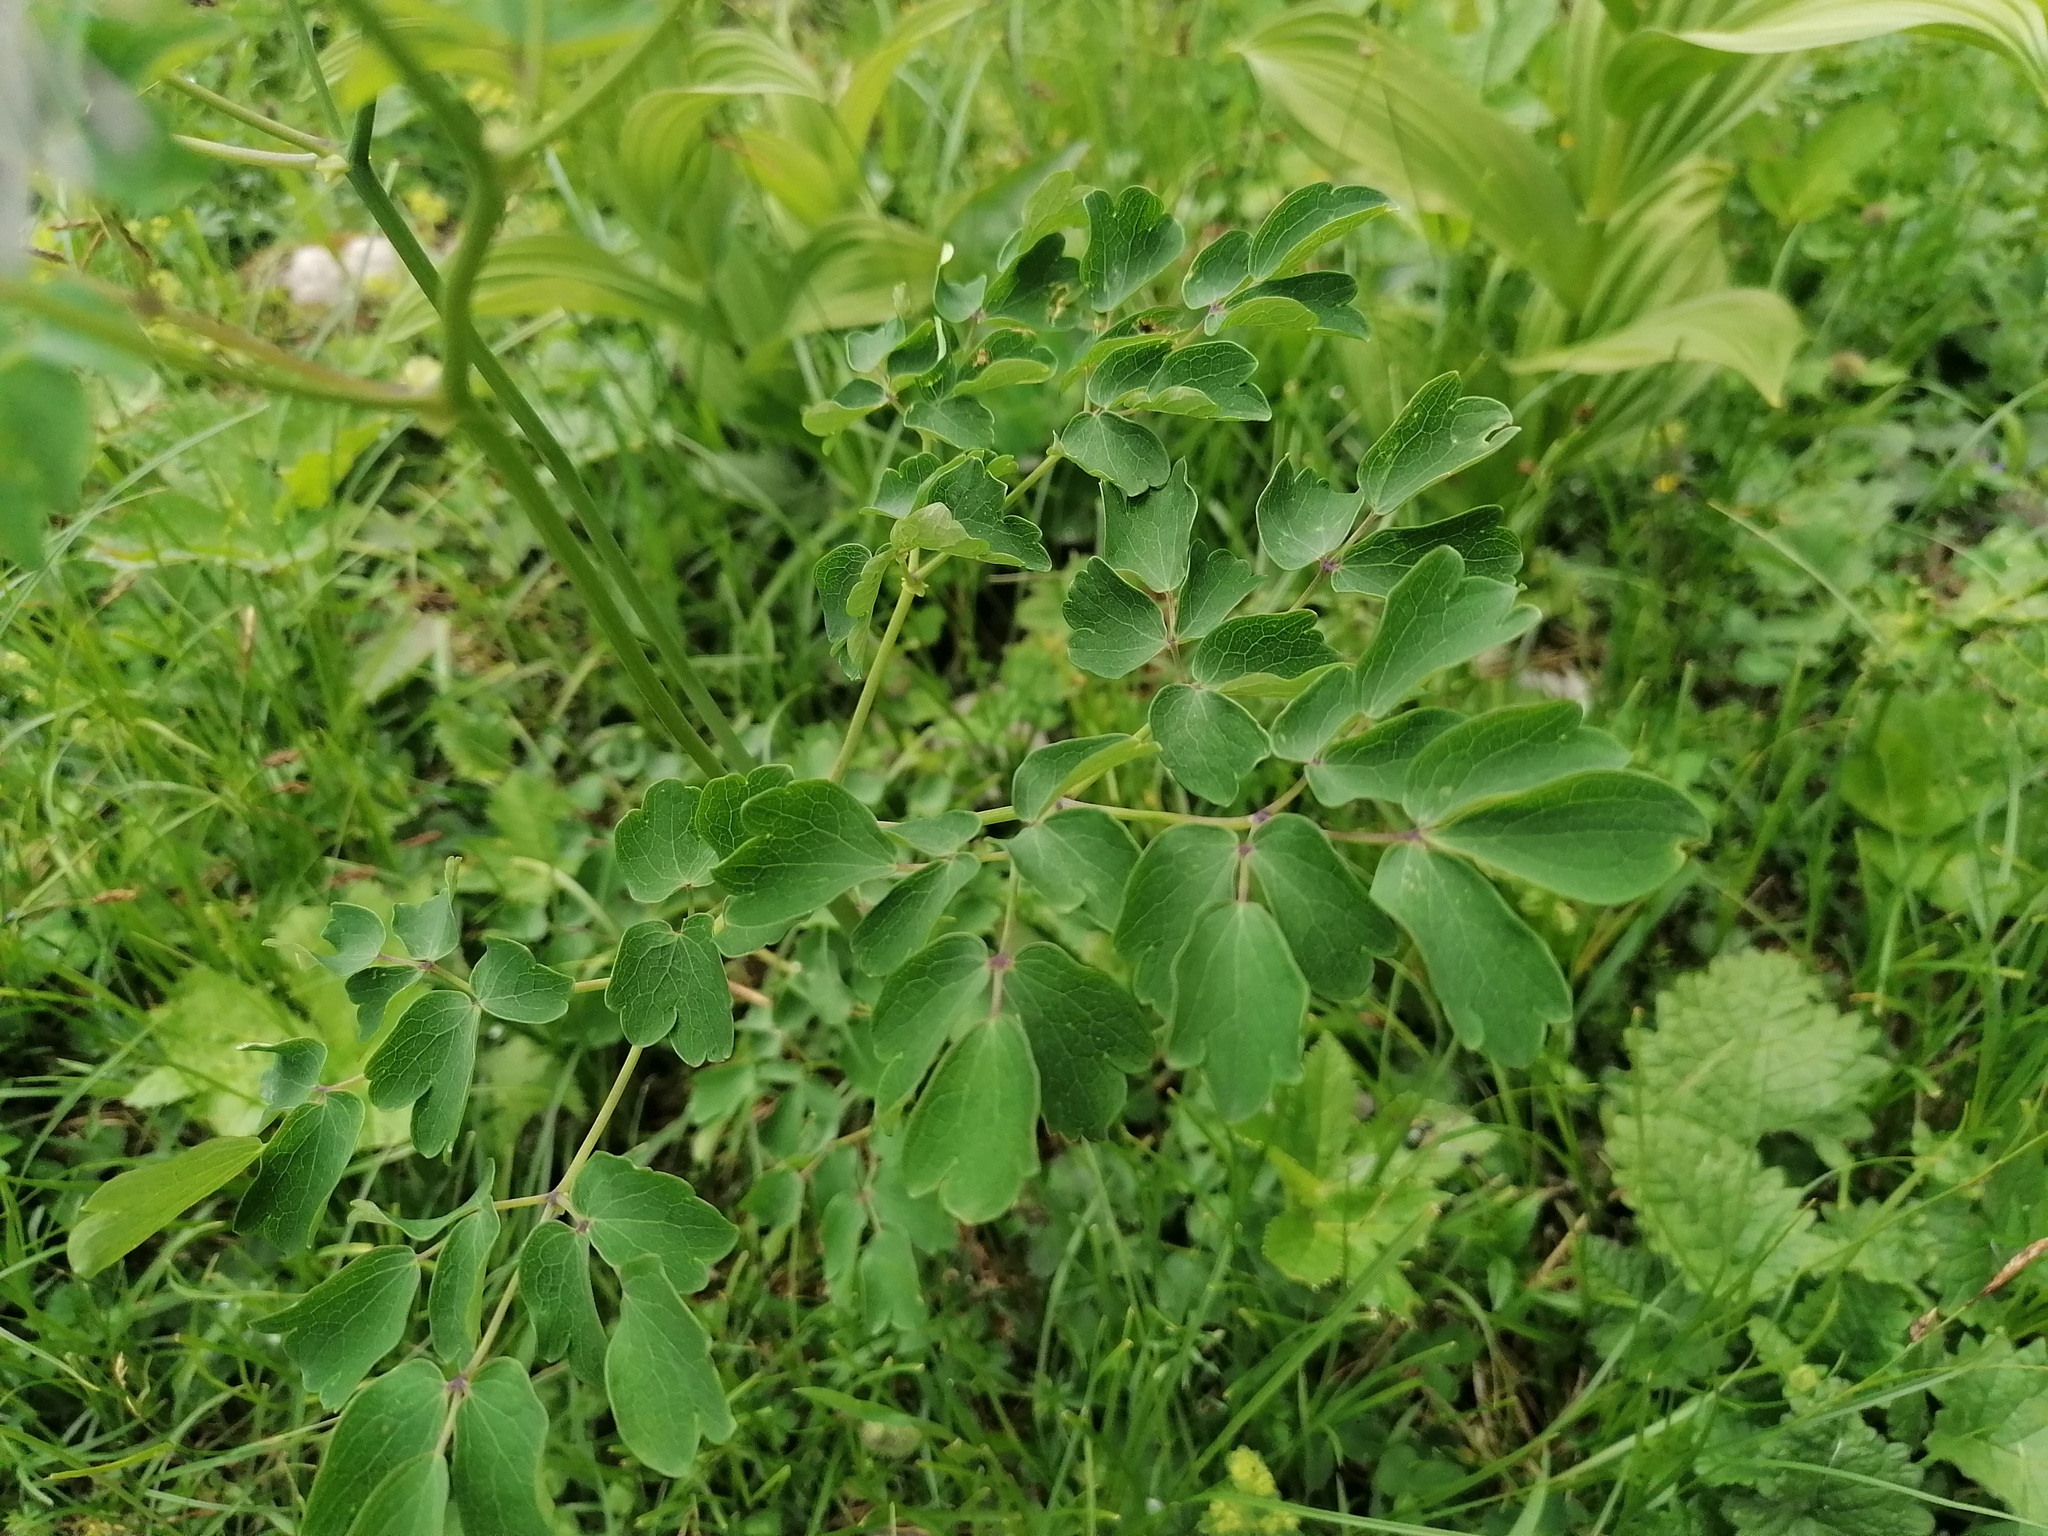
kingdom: Plantae
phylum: Tracheophyta
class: Magnoliopsida
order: Ranunculales
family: Ranunculaceae
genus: Thalictrum
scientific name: Thalictrum aquilegiifolium
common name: French meadow-rue
